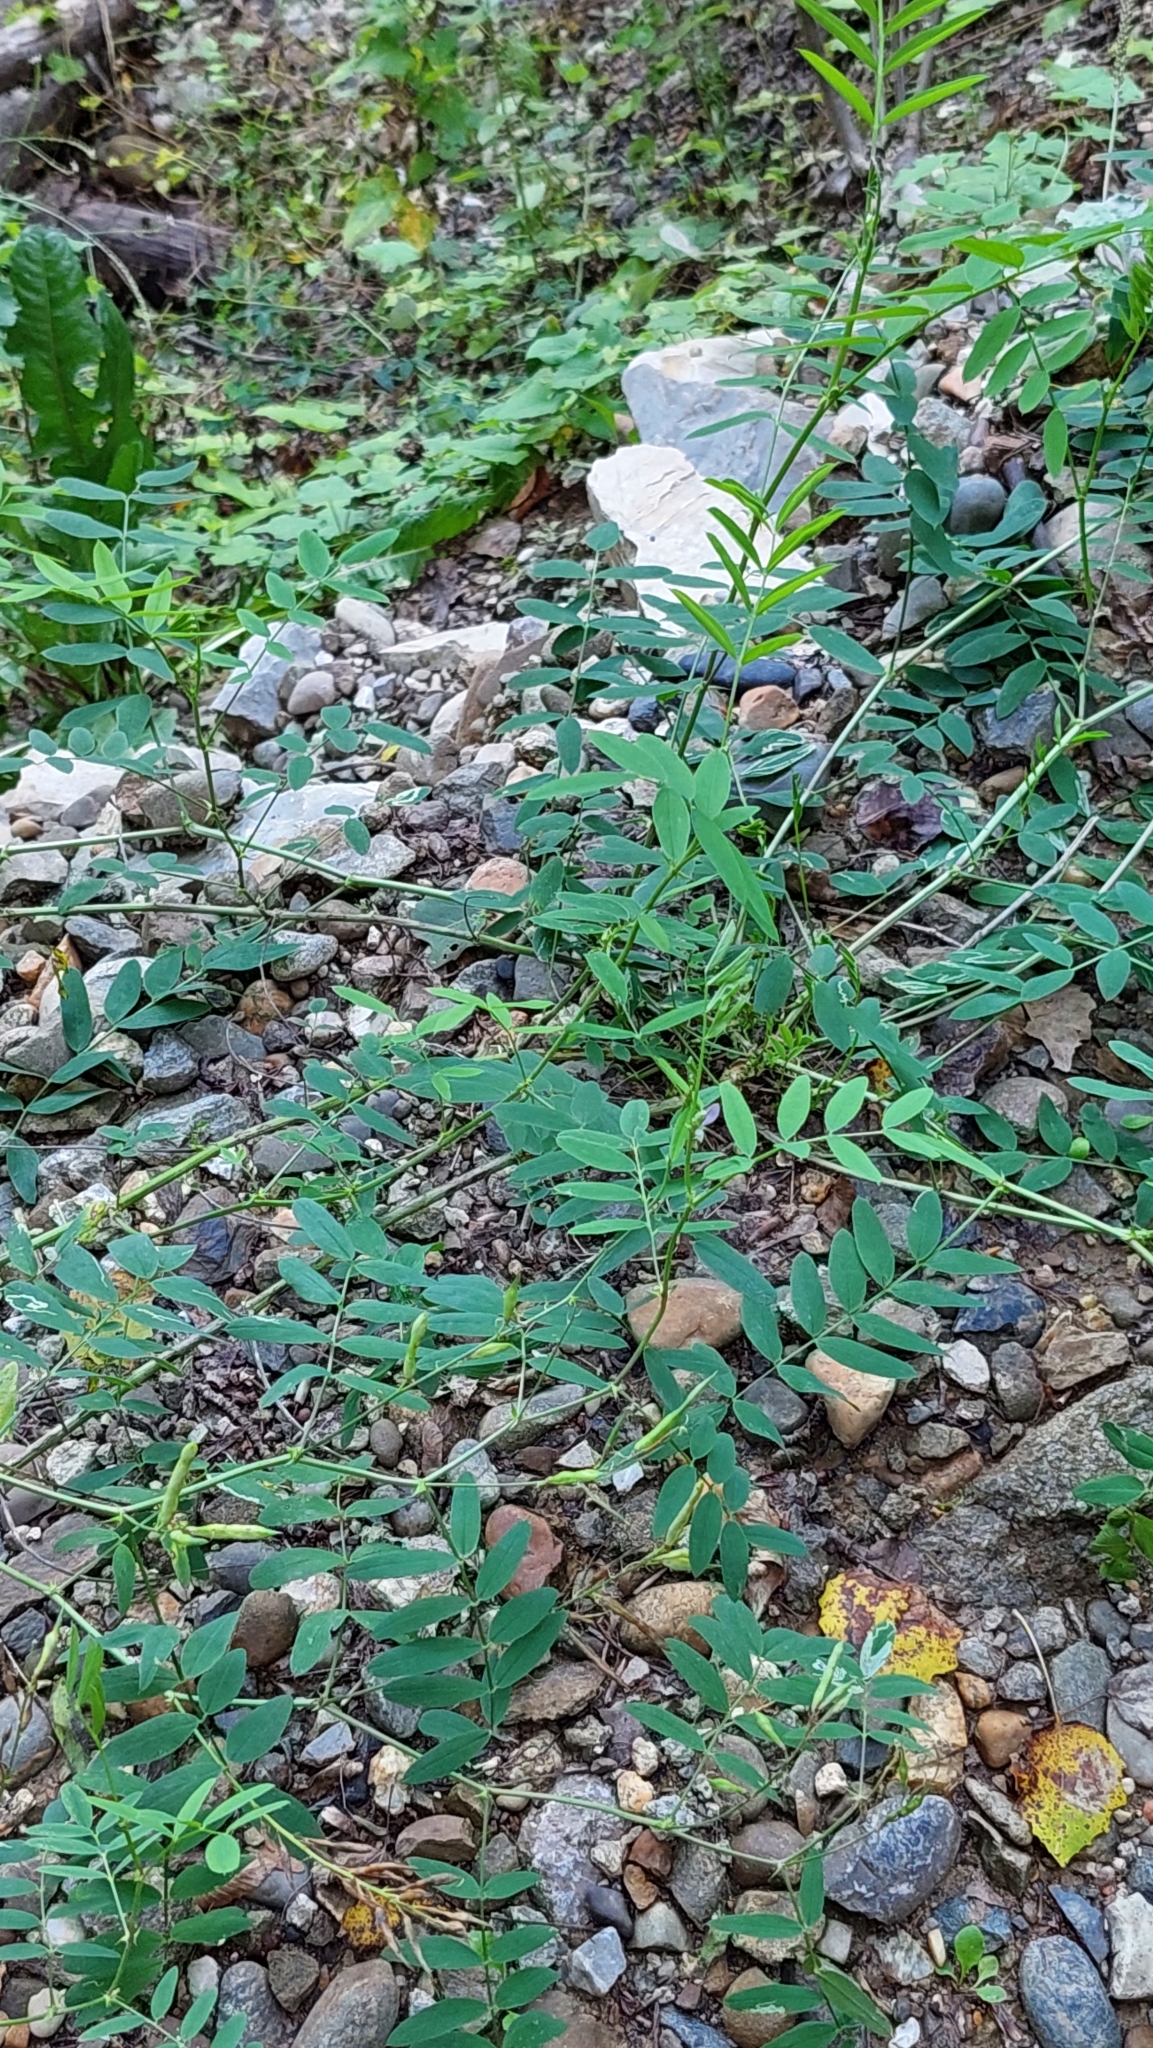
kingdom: Plantae
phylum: Tracheophyta
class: Magnoliopsida
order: Fabales
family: Fabaceae
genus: Galega
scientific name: Galega officinalis
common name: Goat's-rue
